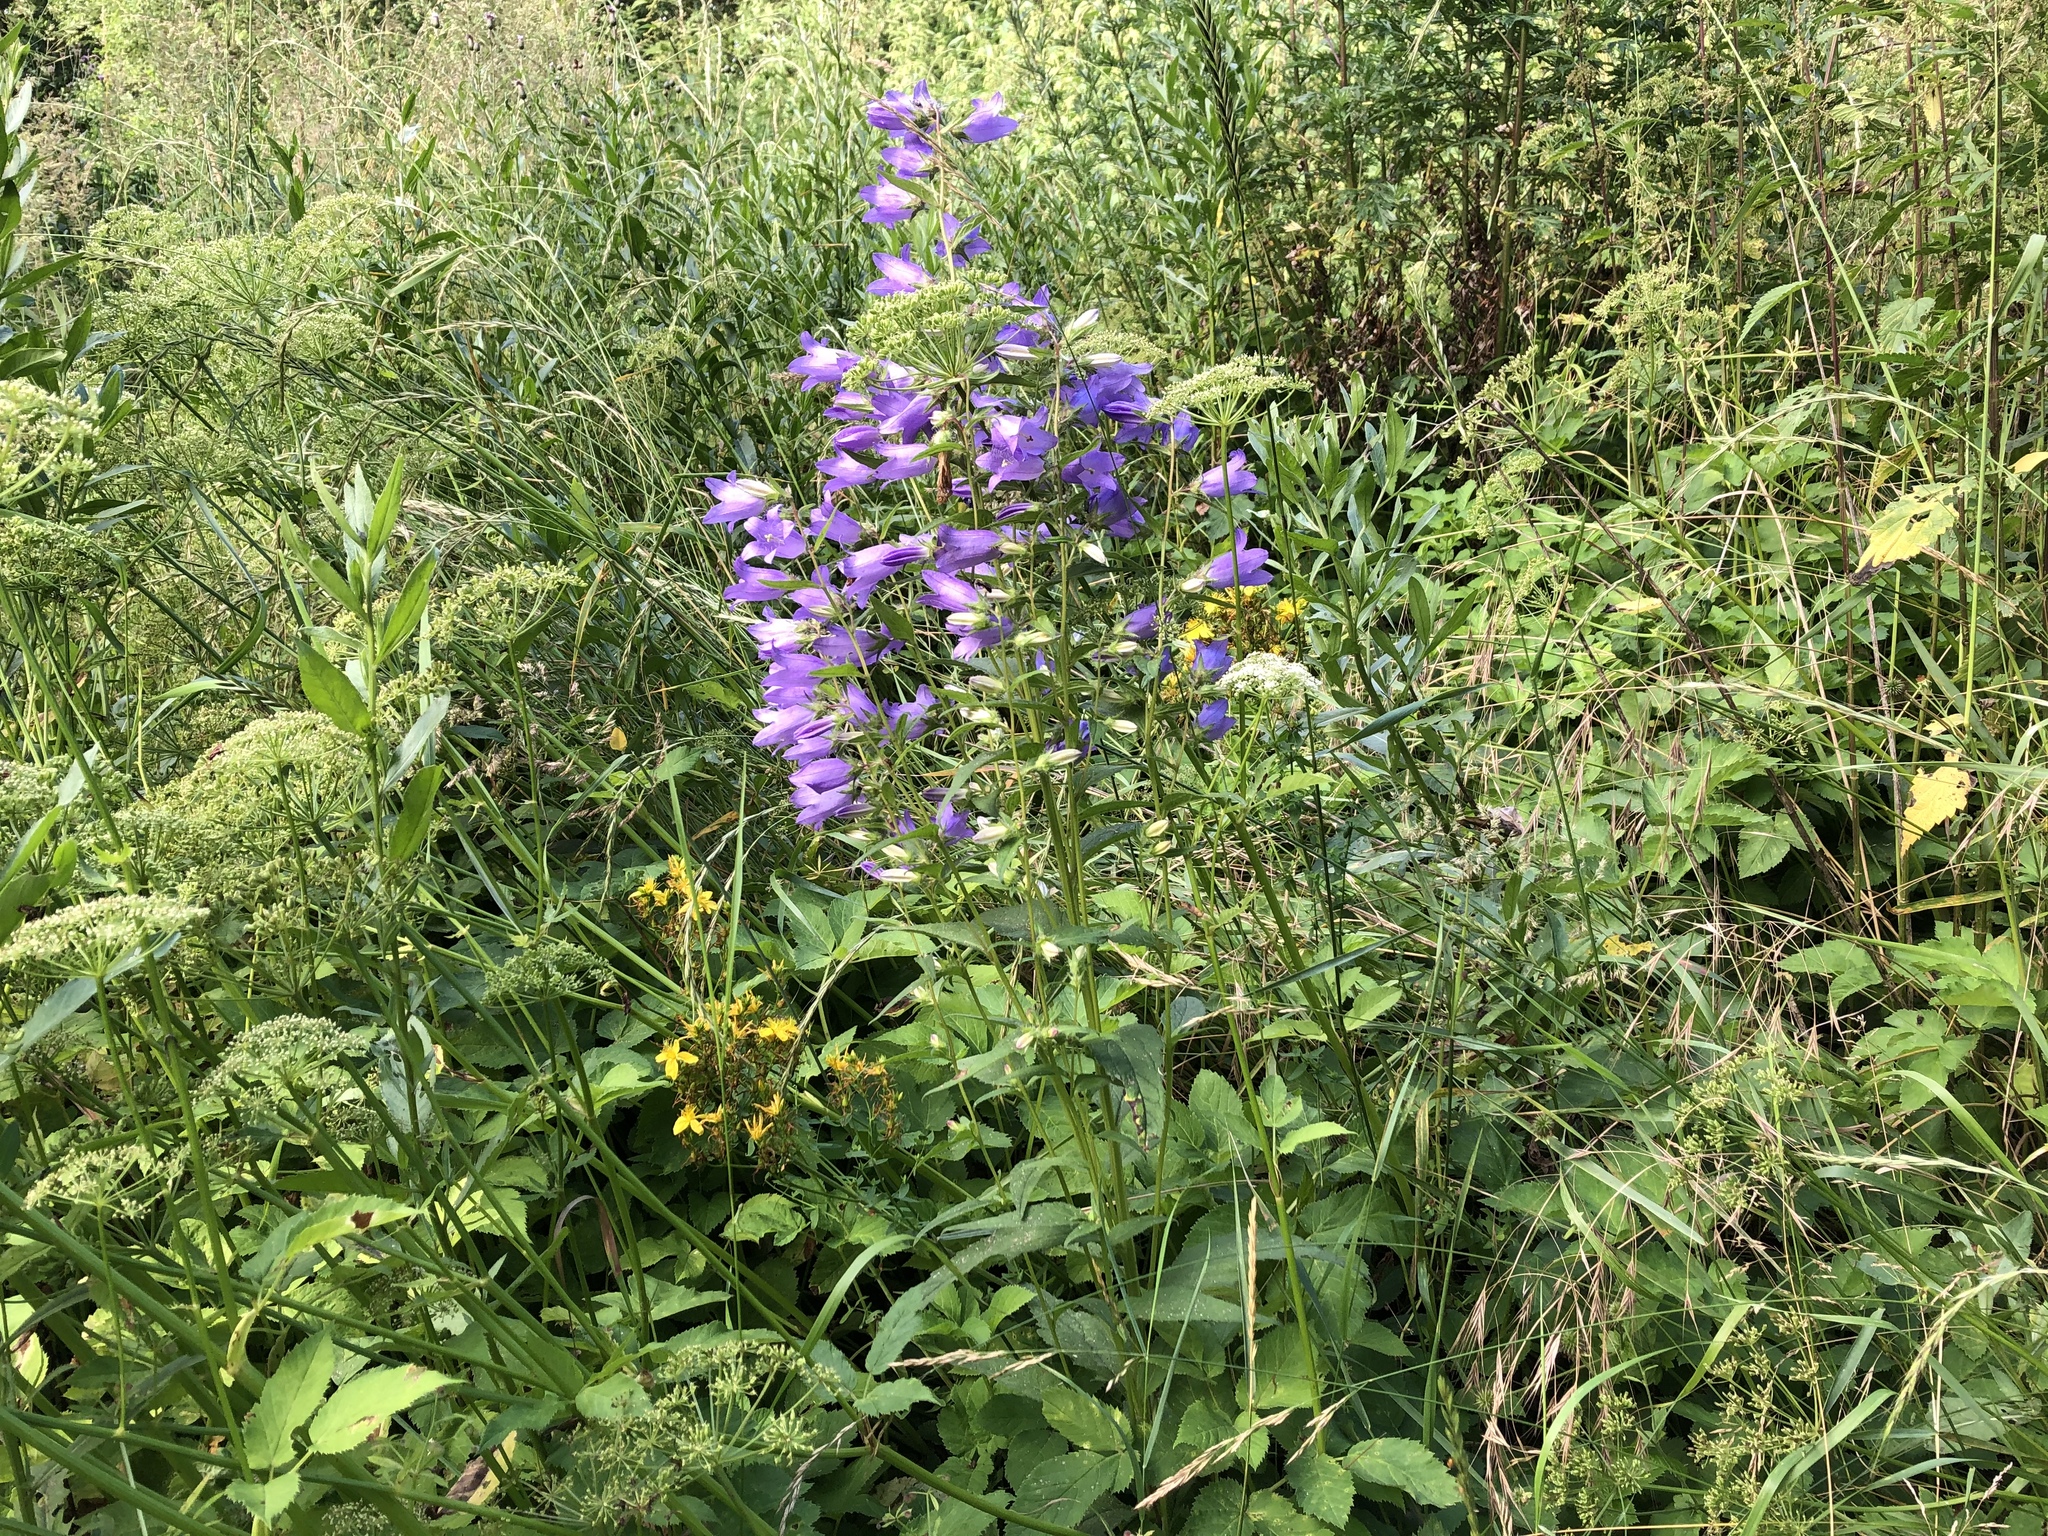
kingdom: Plantae
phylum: Tracheophyta
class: Magnoliopsida
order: Asterales
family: Campanulaceae
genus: Campanula
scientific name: Campanula trachelium
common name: Nettle-leaved bellflower
